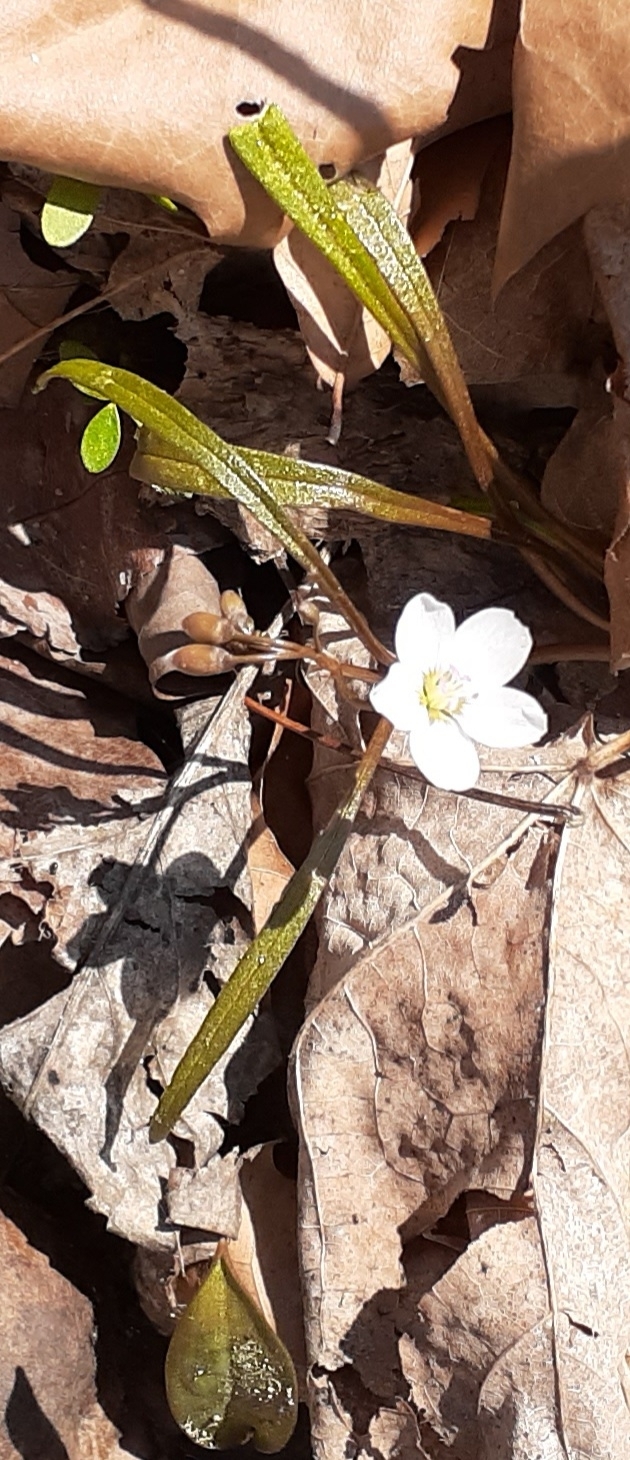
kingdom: Plantae
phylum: Tracheophyta
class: Magnoliopsida
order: Caryophyllales
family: Montiaceae
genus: Claytonia
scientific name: Claytonia virginica
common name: Virginia springbeauty
